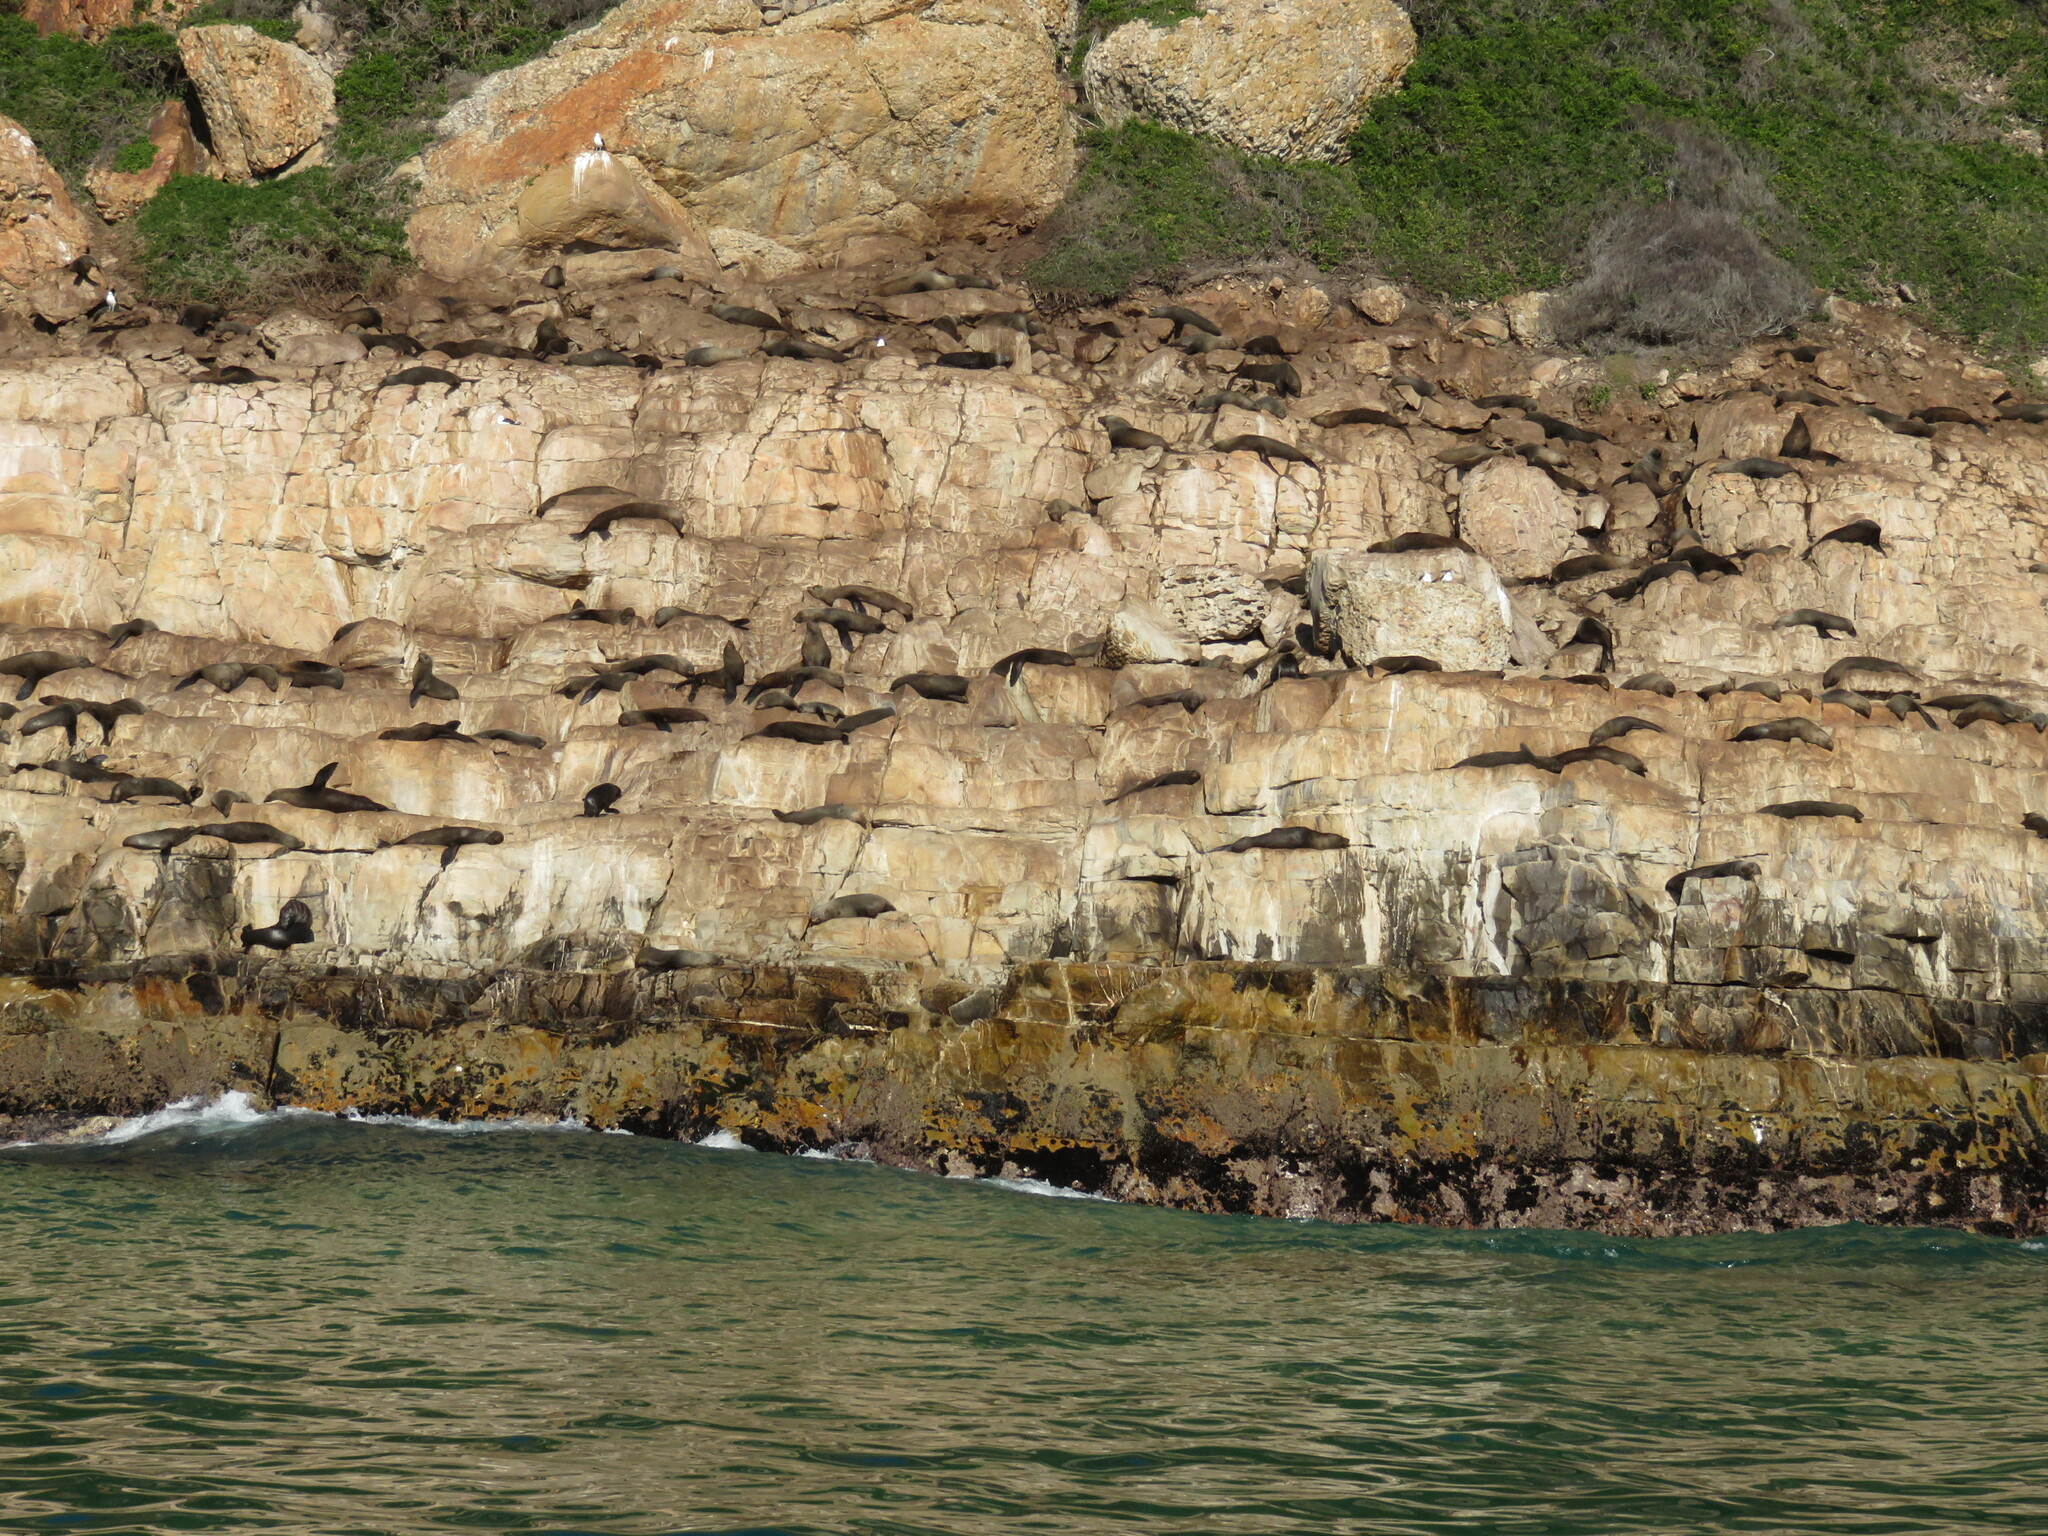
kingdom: Animalia
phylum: Chordata
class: Mammalia
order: Carnivora
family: Otariidae
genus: Arctocephalus
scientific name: Arctocephalus pusillus
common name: Brown fur seal
